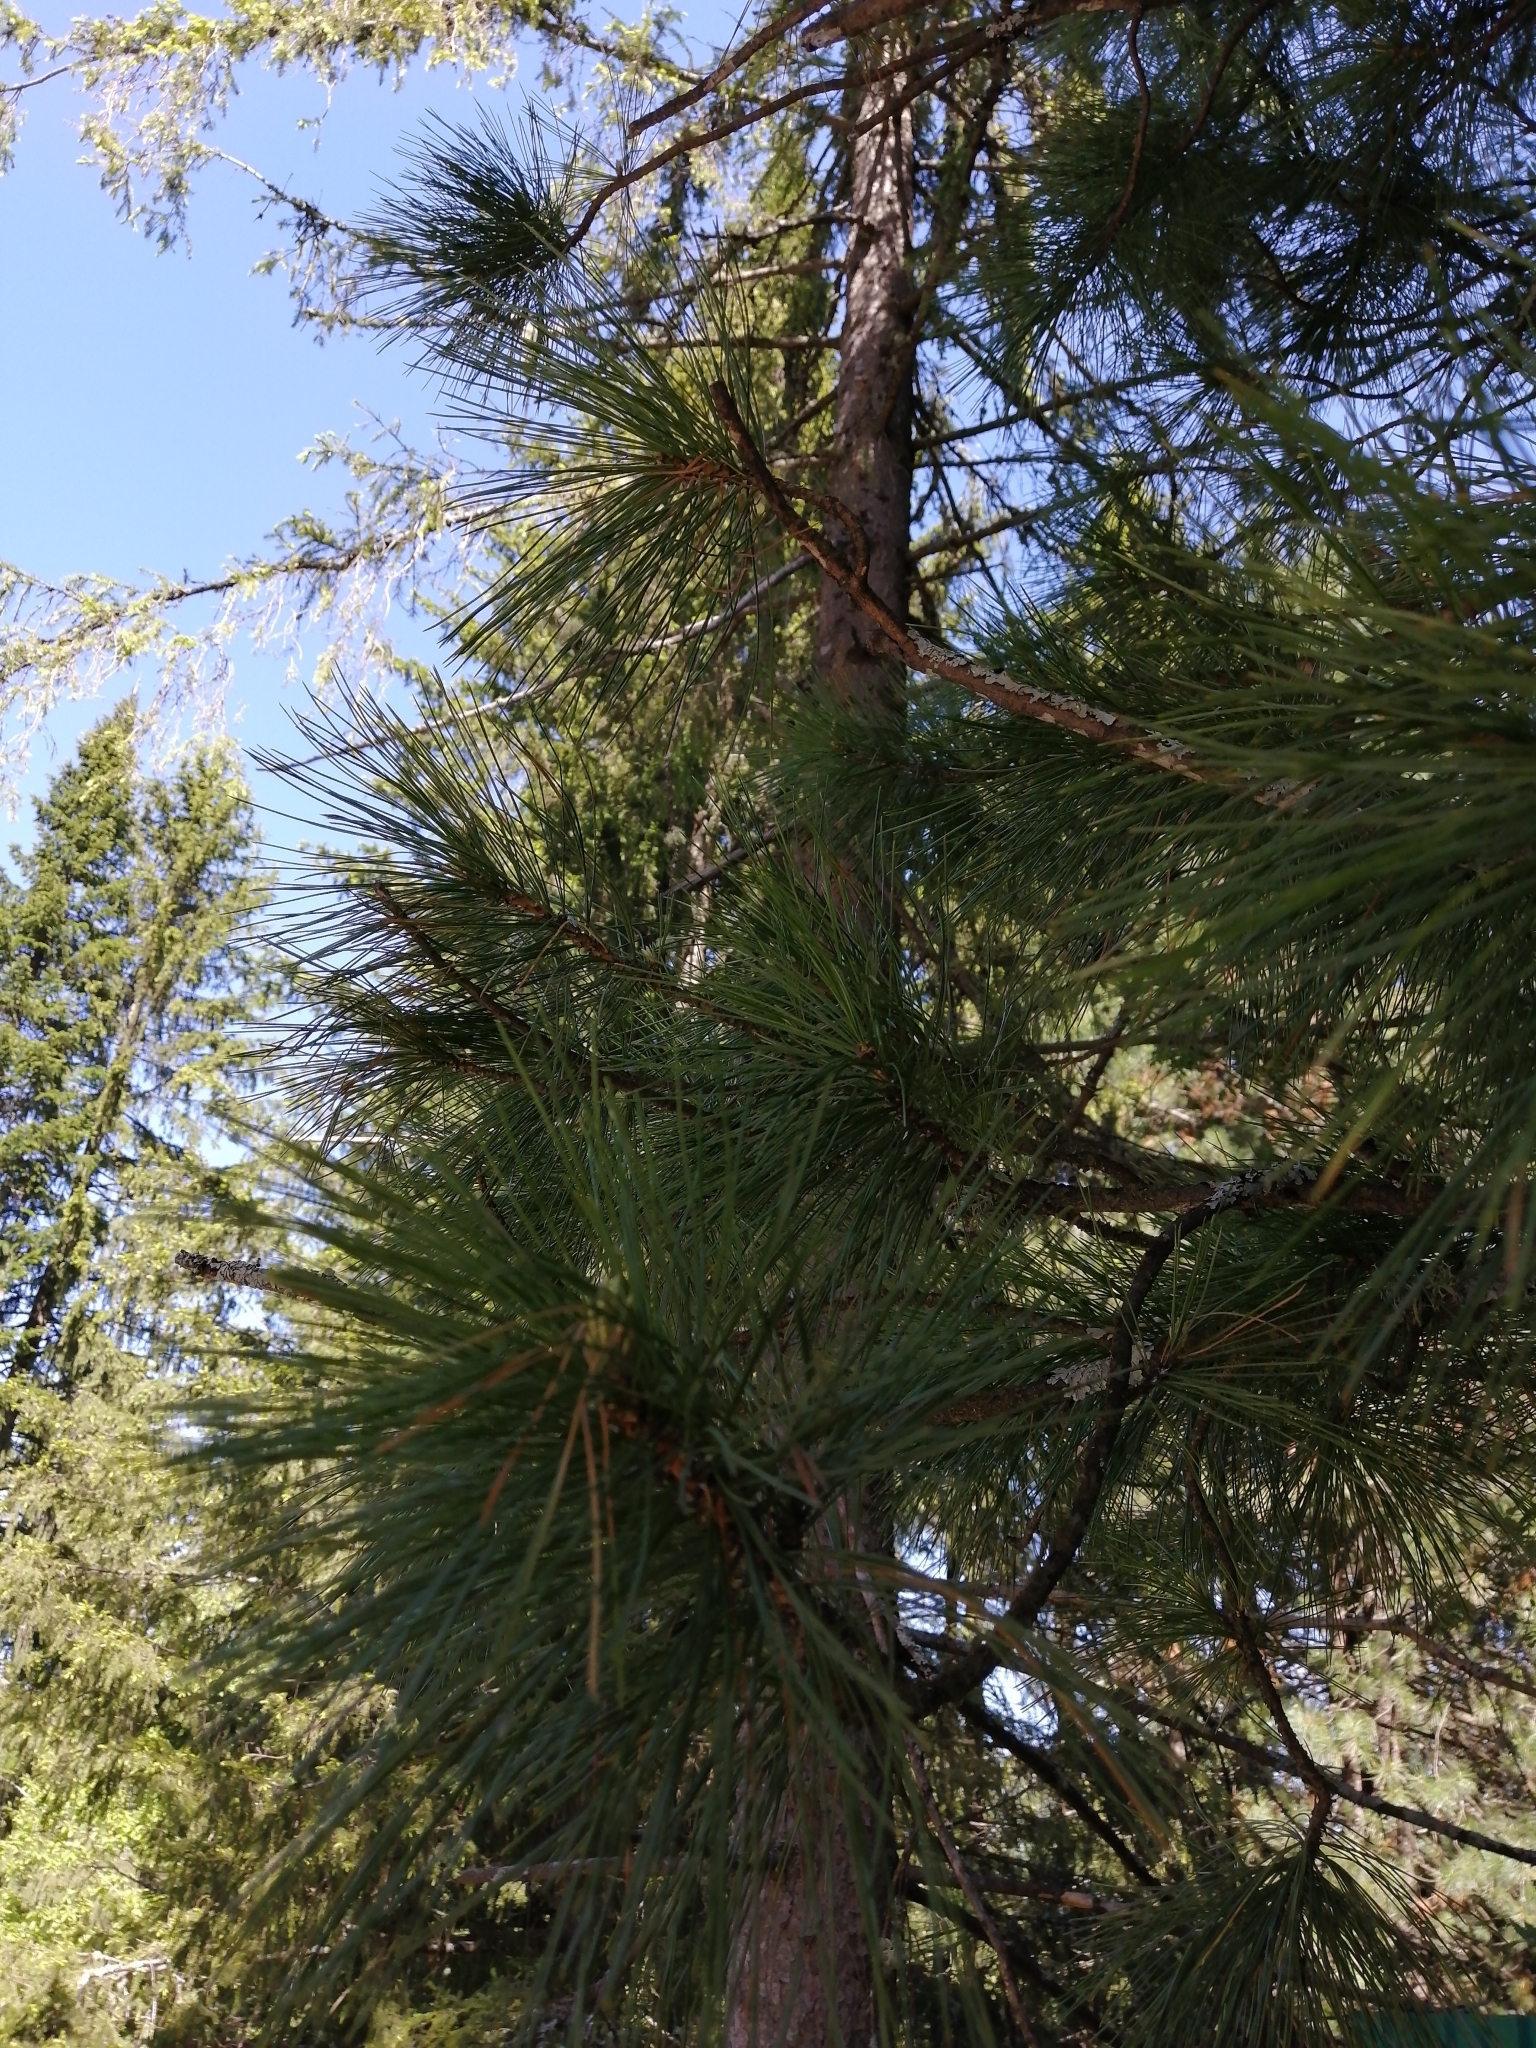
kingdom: Plantae
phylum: Tracheophyta
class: Pinopsida
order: Pinales
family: Pinaceae
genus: Pinus
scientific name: Pinus sibirica
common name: Siberian pine
